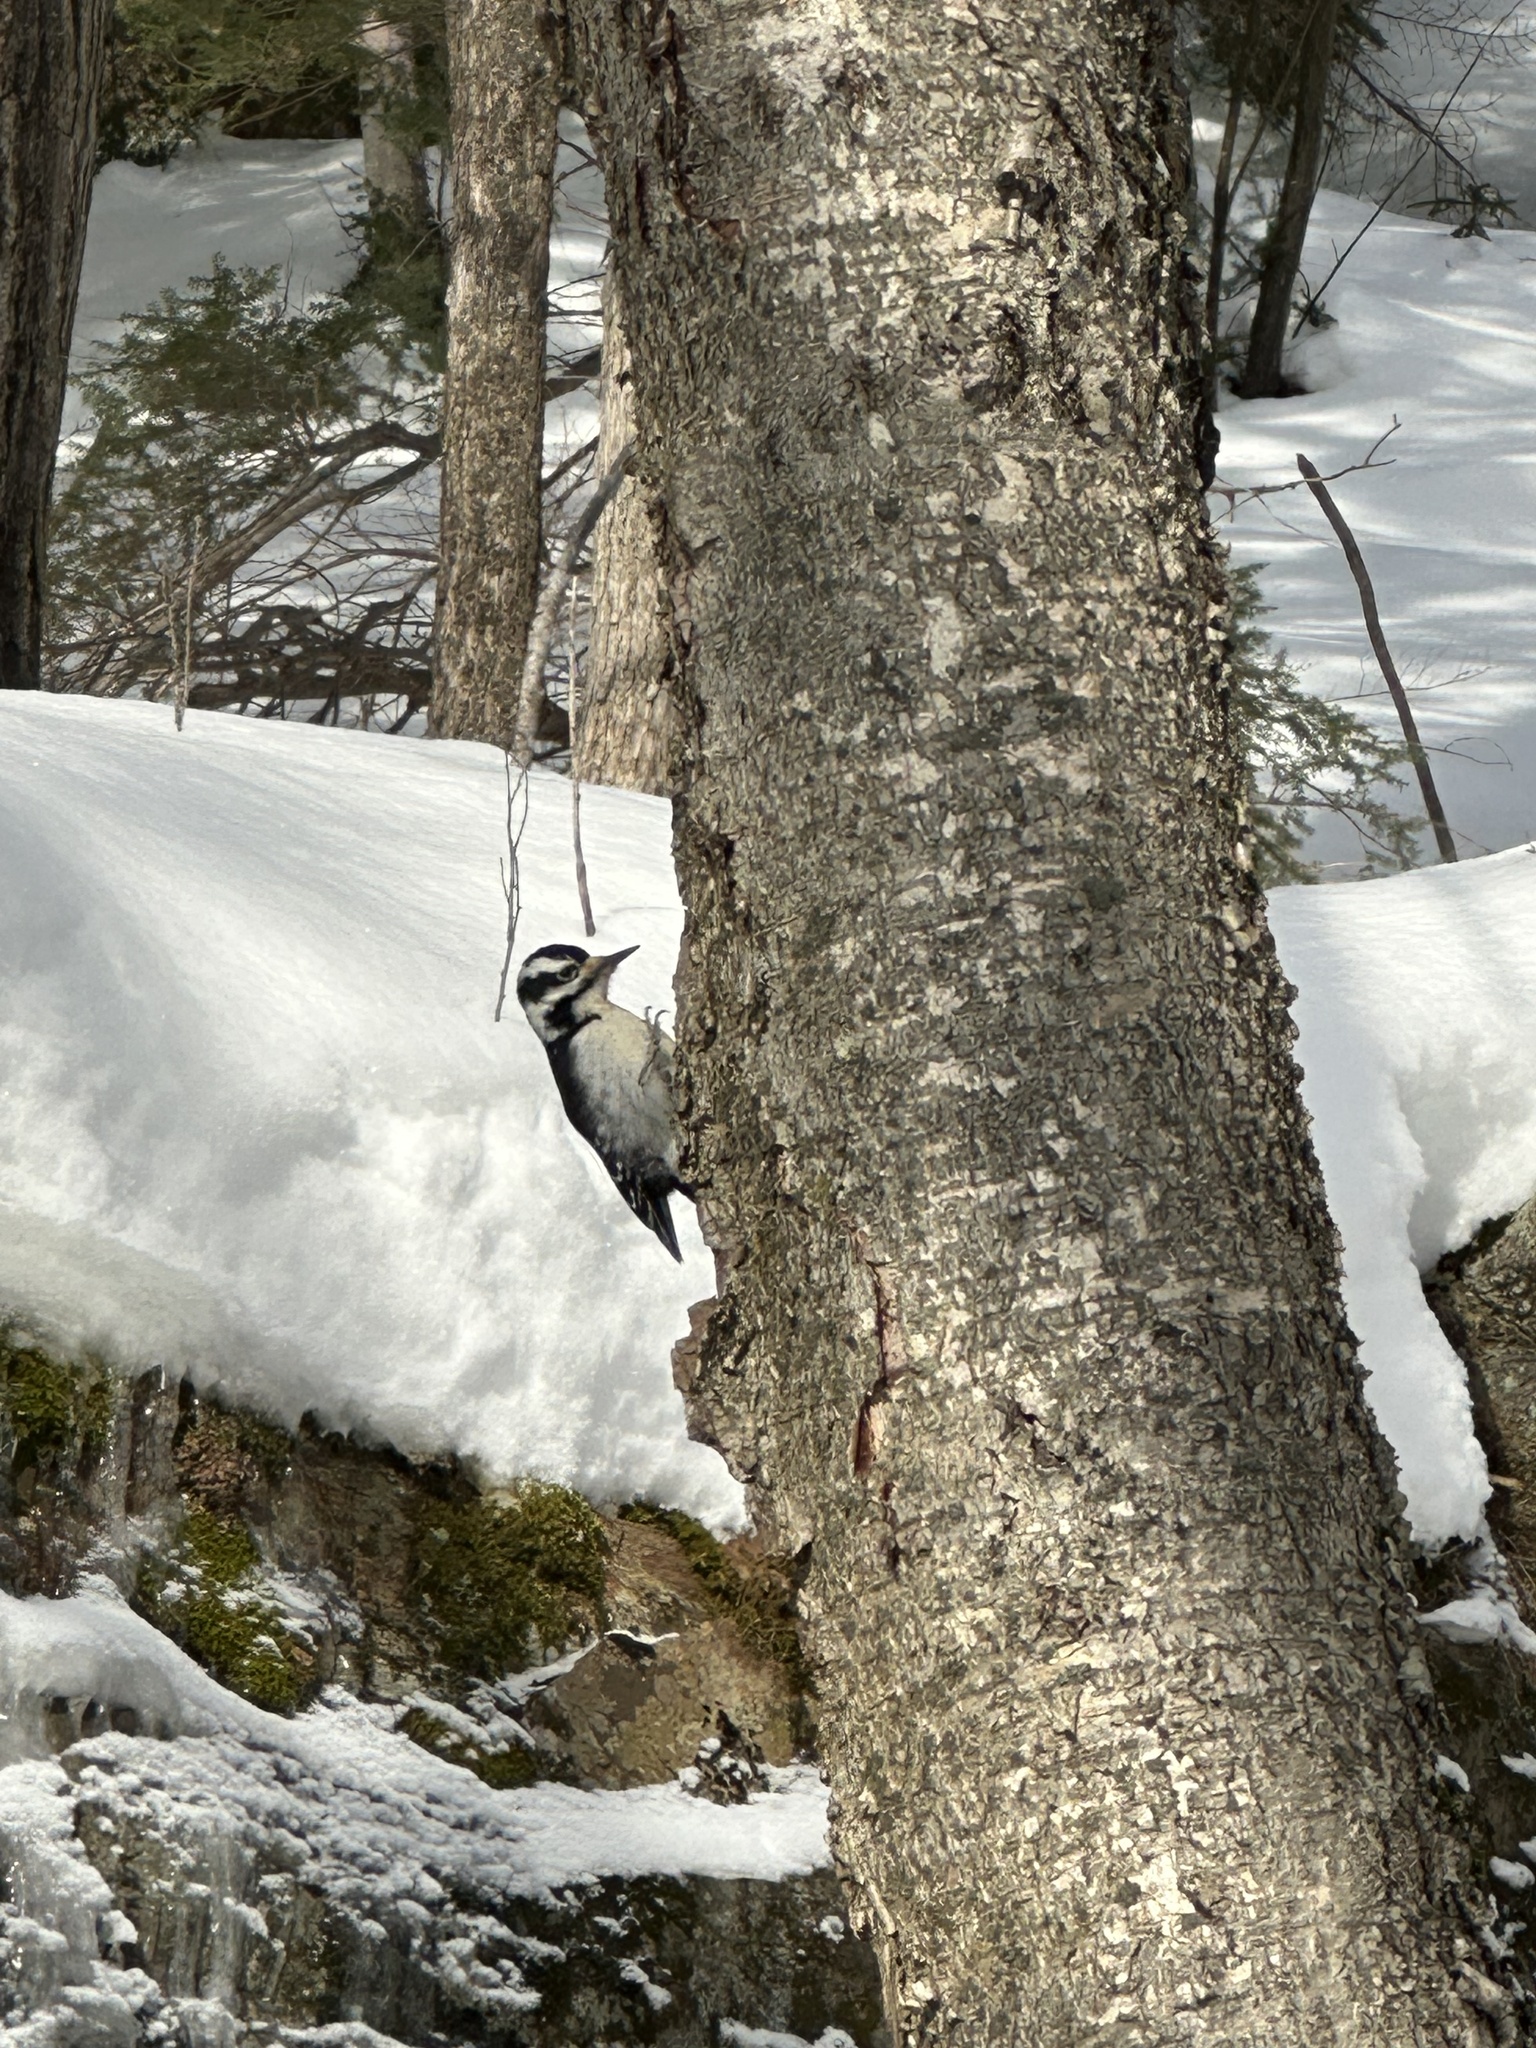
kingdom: Animalia
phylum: Chordata
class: Aves
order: Piciformes
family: Picidae
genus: Leuconotopicus
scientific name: Leuconotopicus villosus
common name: Hairy woodpecker
